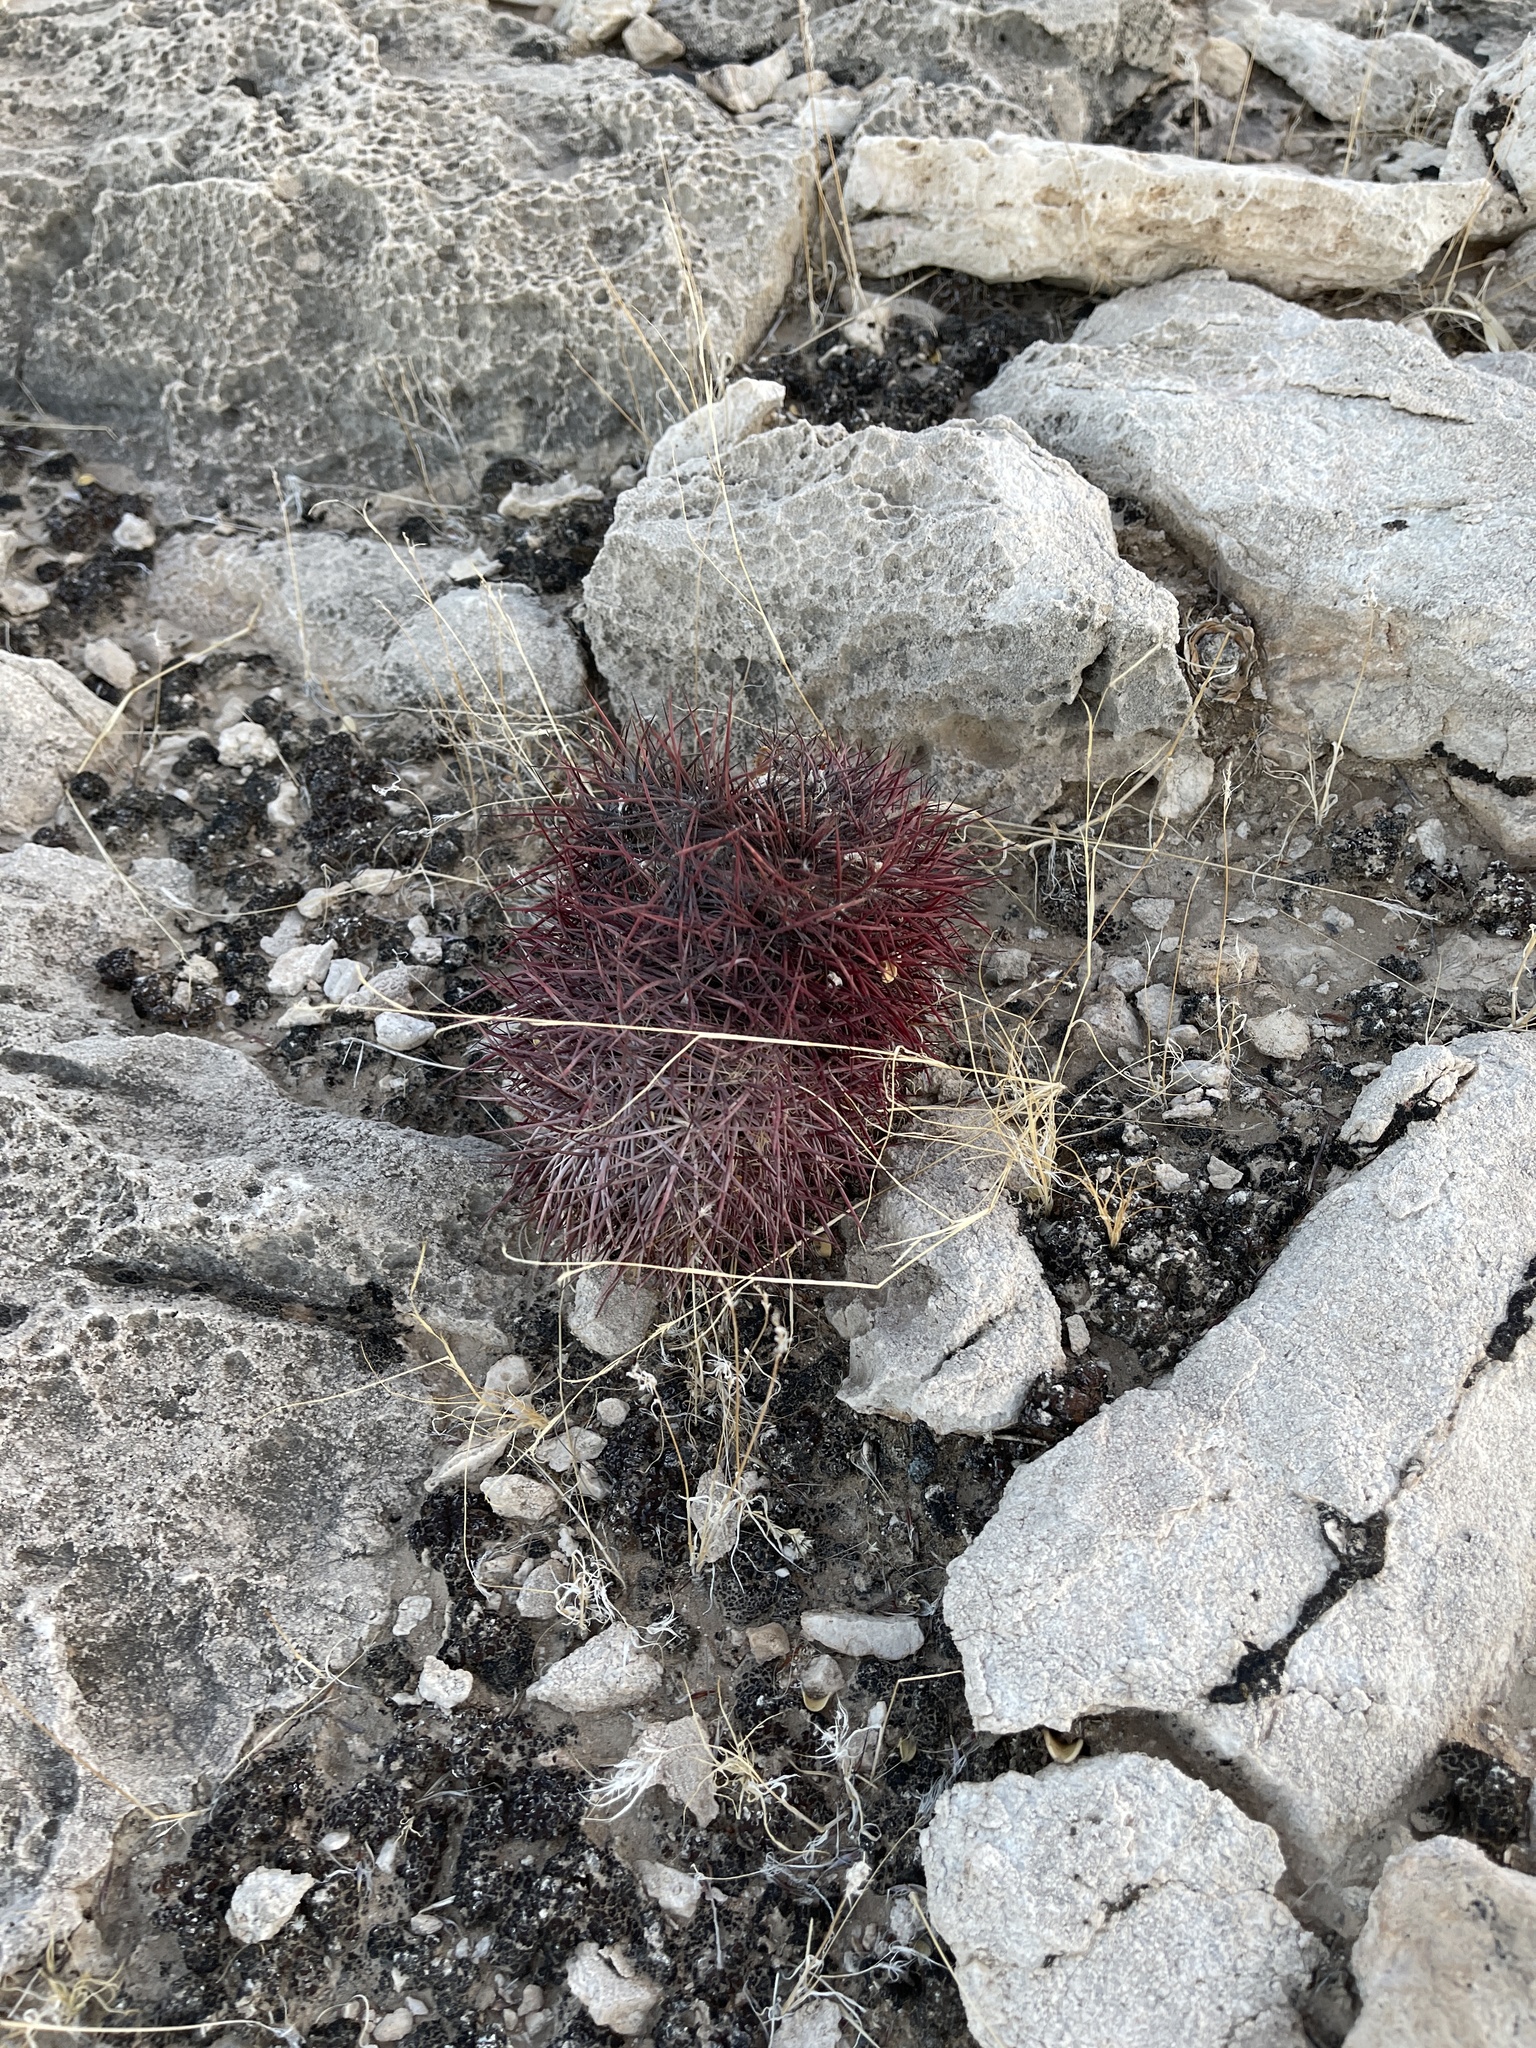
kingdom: Plantae
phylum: Tracheophyta
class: Magnoliopsida
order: Caryophyllales
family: Cactaceae
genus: Sclerocactus
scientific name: Sclerocactus johnsonii
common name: Eight-spine fishhook cactus
